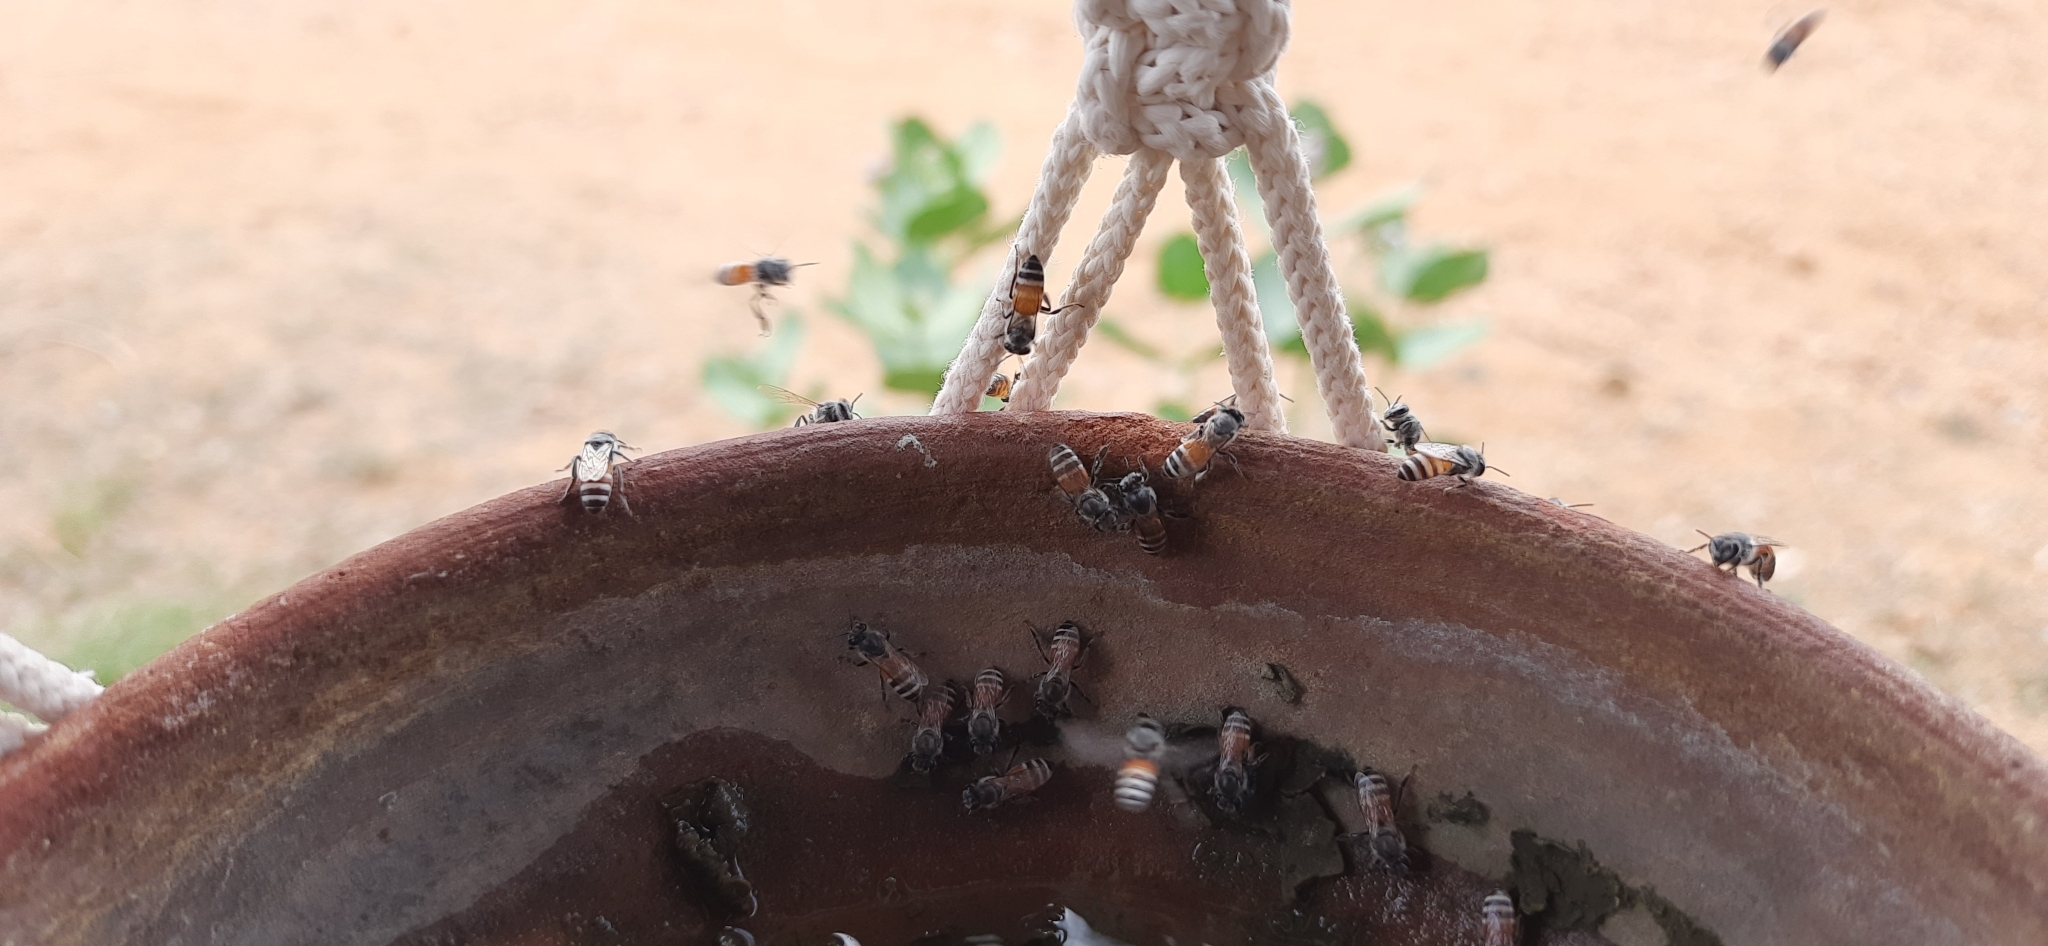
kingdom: Animalia
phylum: Arthropoda
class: Insecta
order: Hymenoptera
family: Apidae
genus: Apis
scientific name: Apis florea
